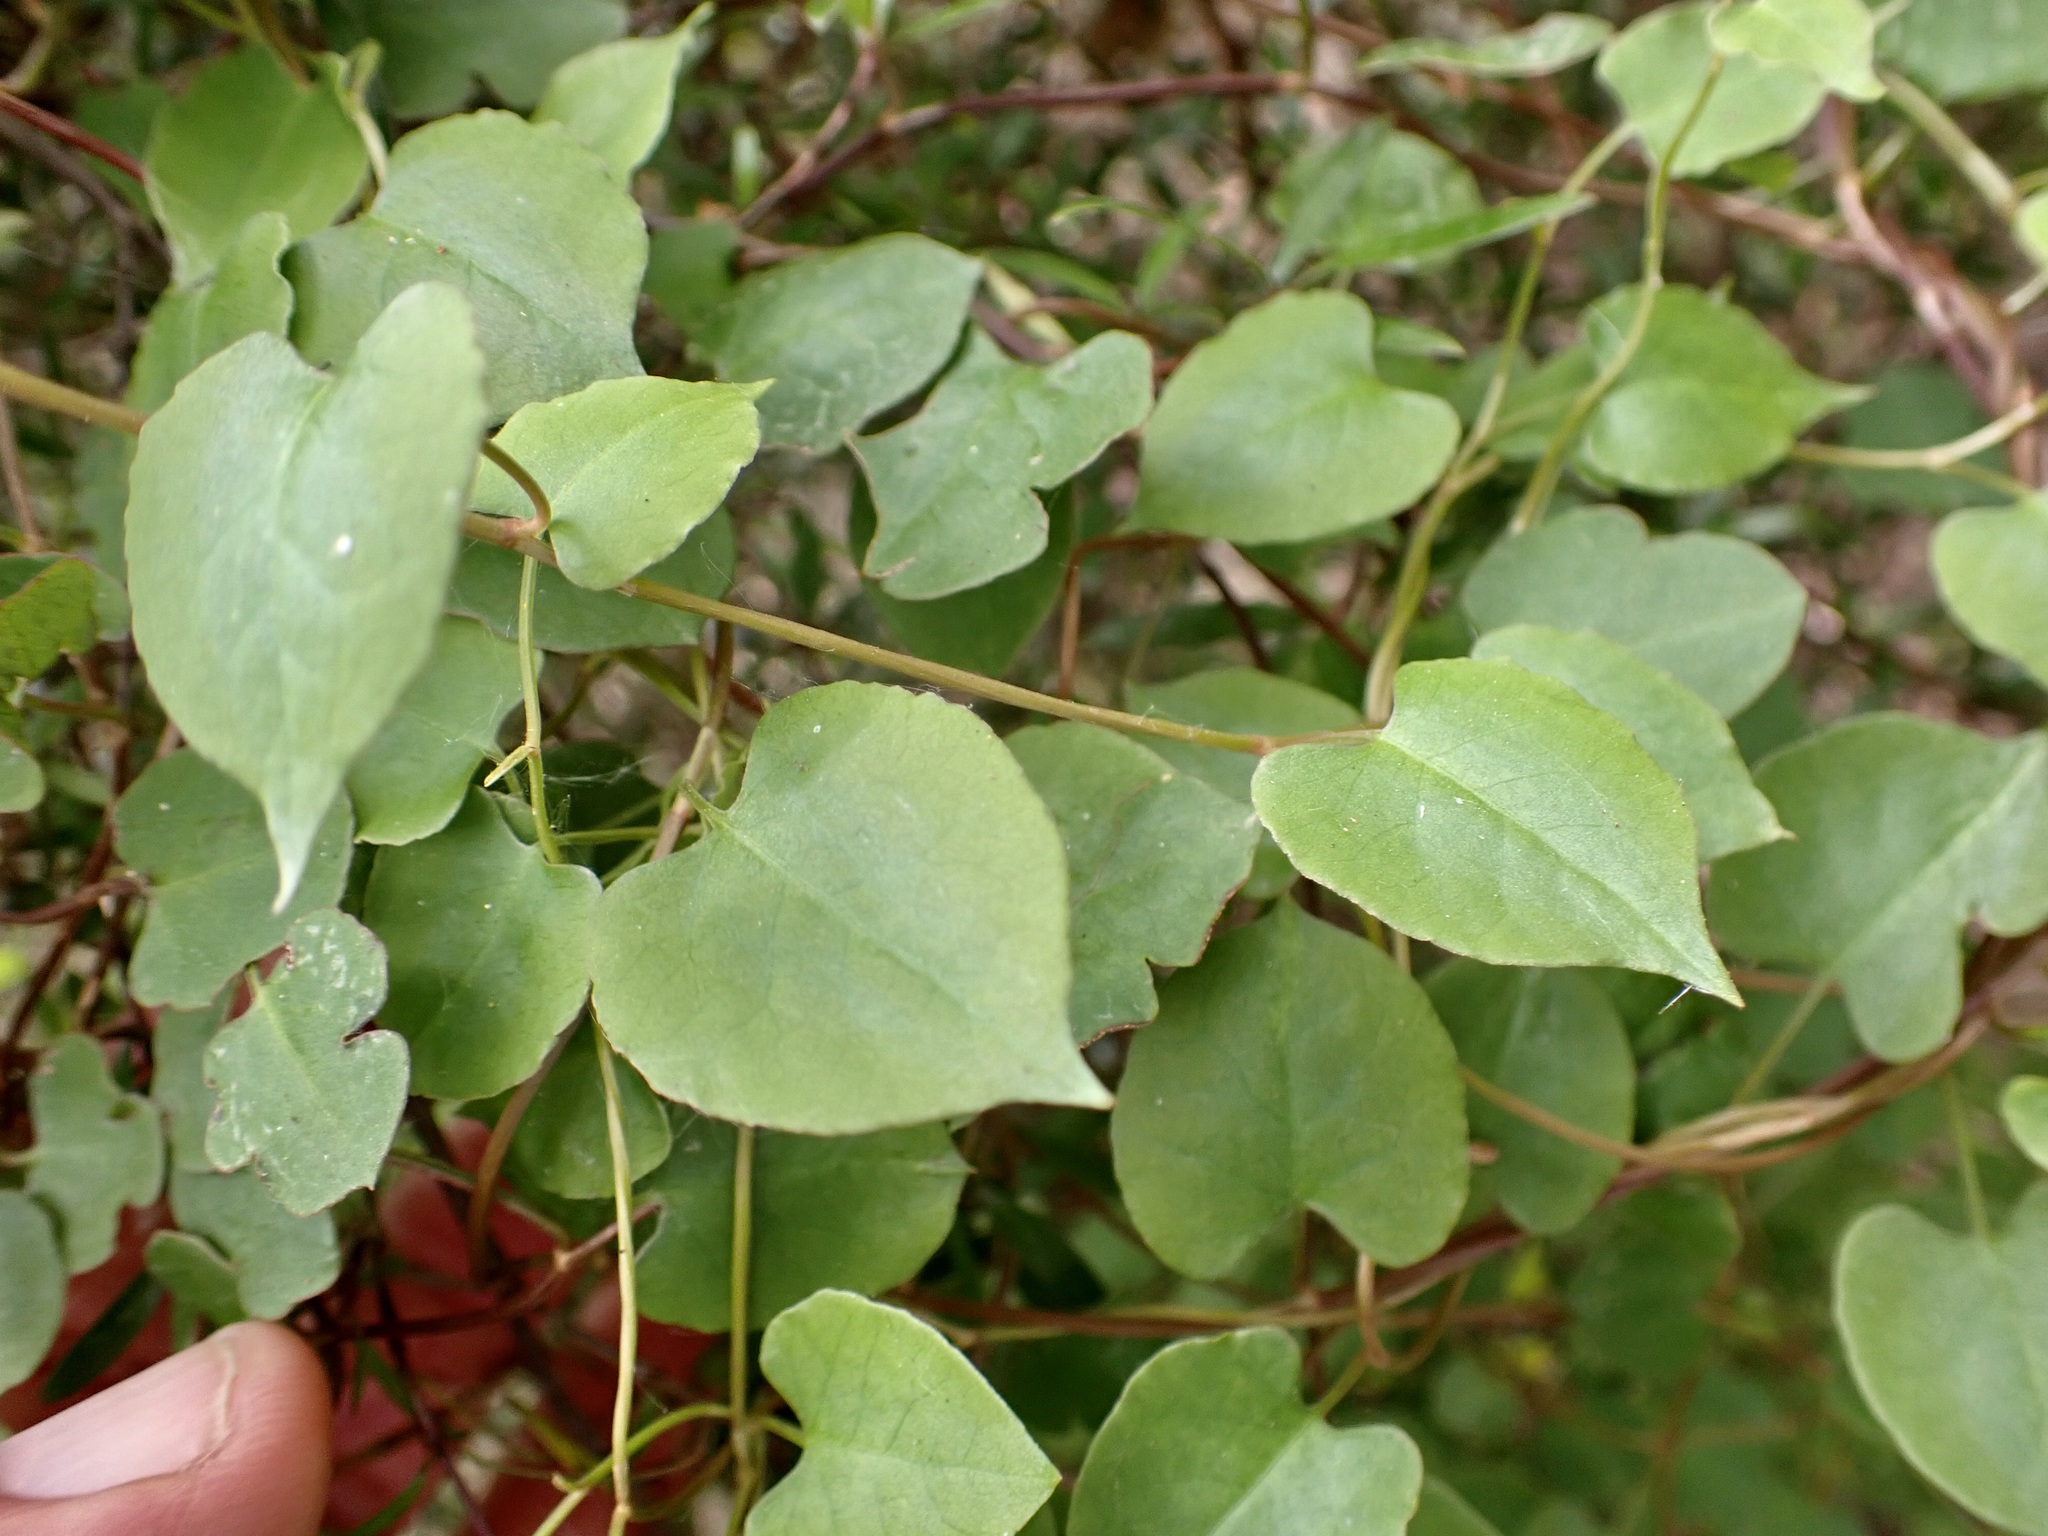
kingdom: Plantae
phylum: Tracheophyta
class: Magnoliopsida
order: Caryophyllales
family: Polygonaceae
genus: Muehlenbeckia
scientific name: Muehlenbeckia australis
